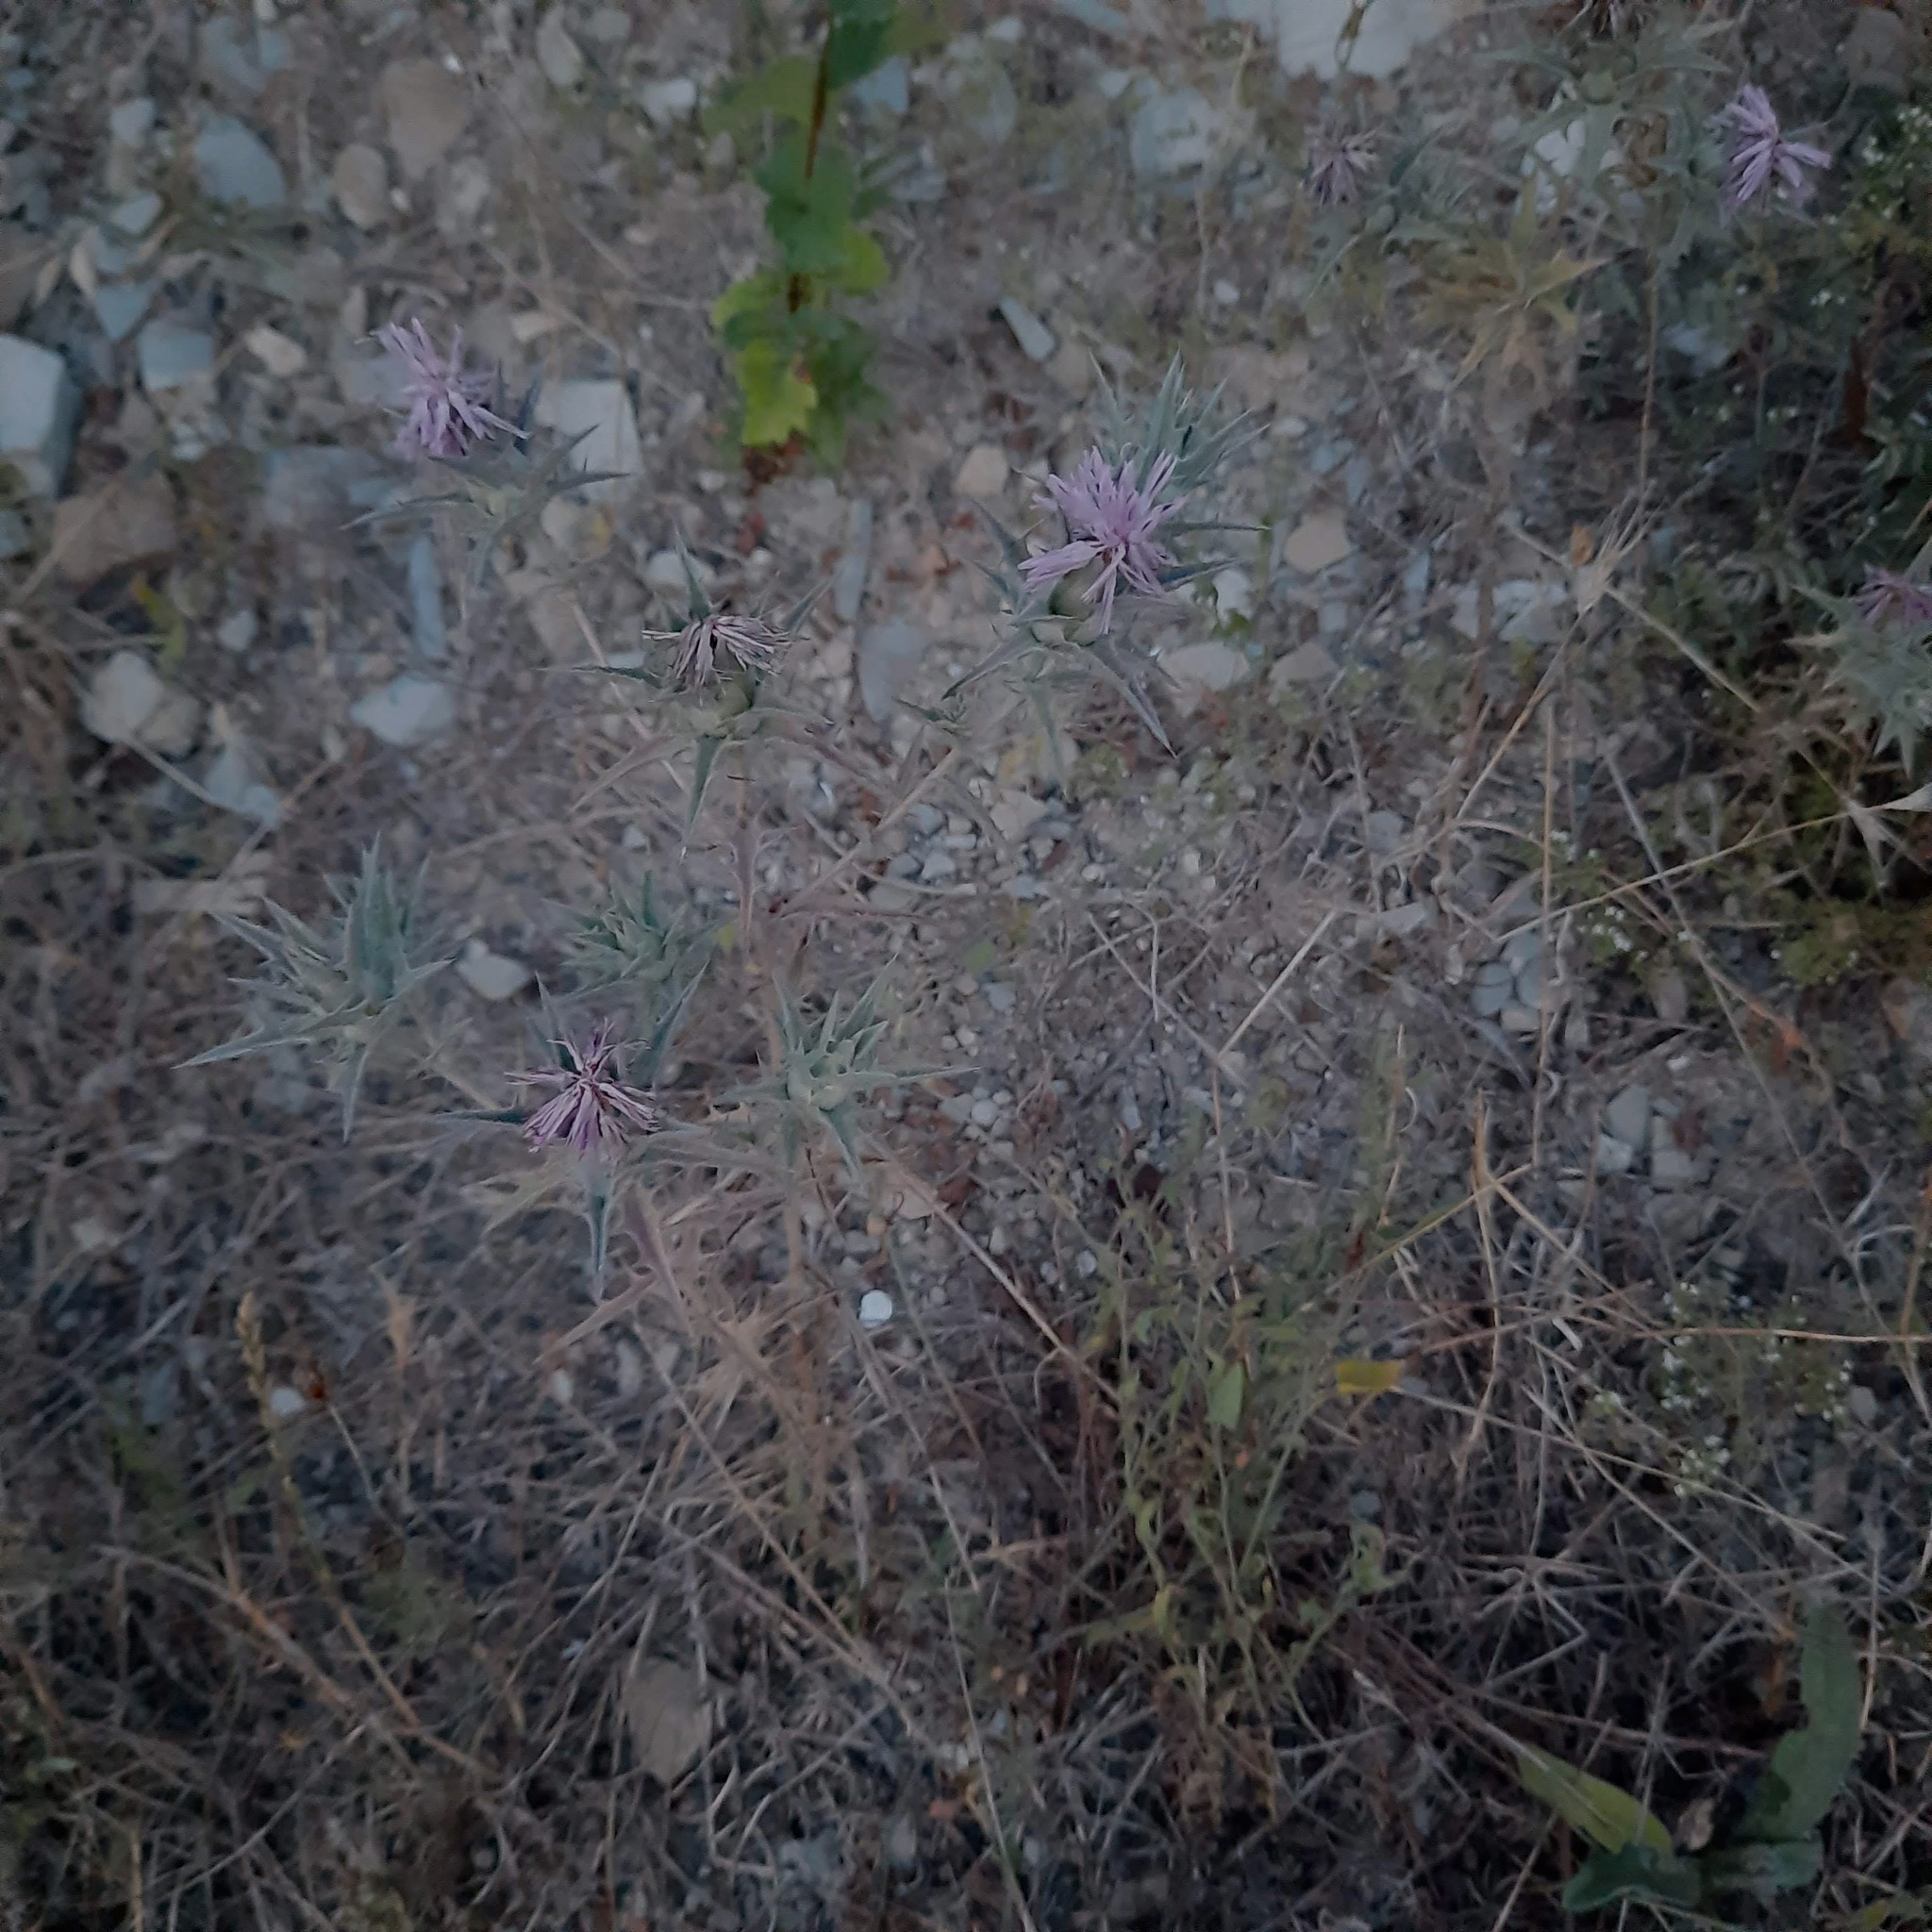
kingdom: Plantae
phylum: Tracheophyta
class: Magnoliopsida
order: Asterales
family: Asteraceae
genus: Carthamus
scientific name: Carthamus glaucus
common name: Mediterranean thistle
